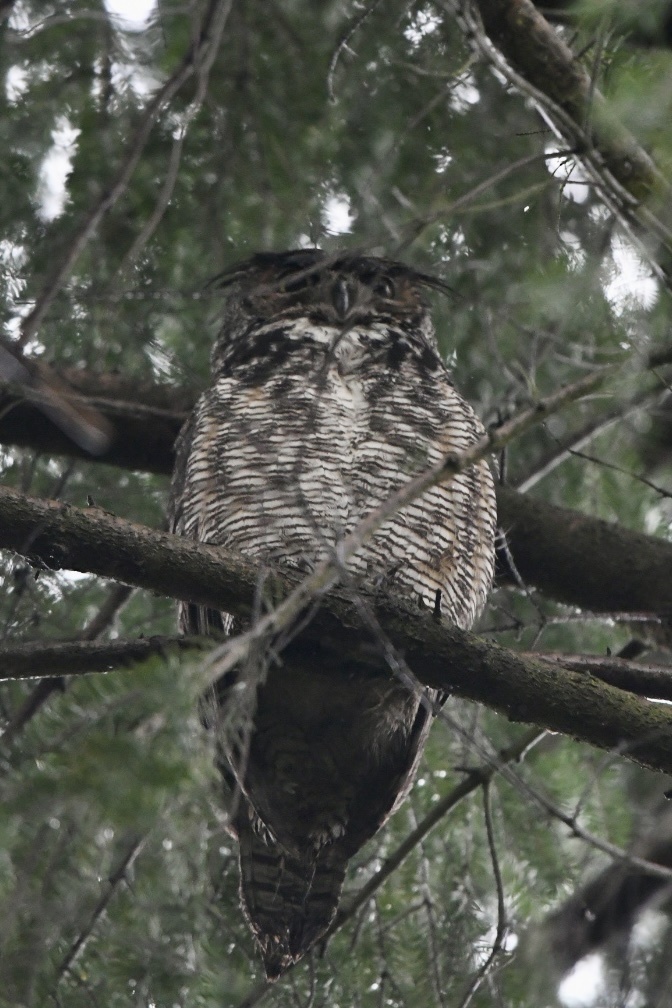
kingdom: Animalia
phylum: Chordata
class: Aves
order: Strigiformes
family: Strigidae
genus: Bubo
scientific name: Bubo virginianus
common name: Great horned owl
